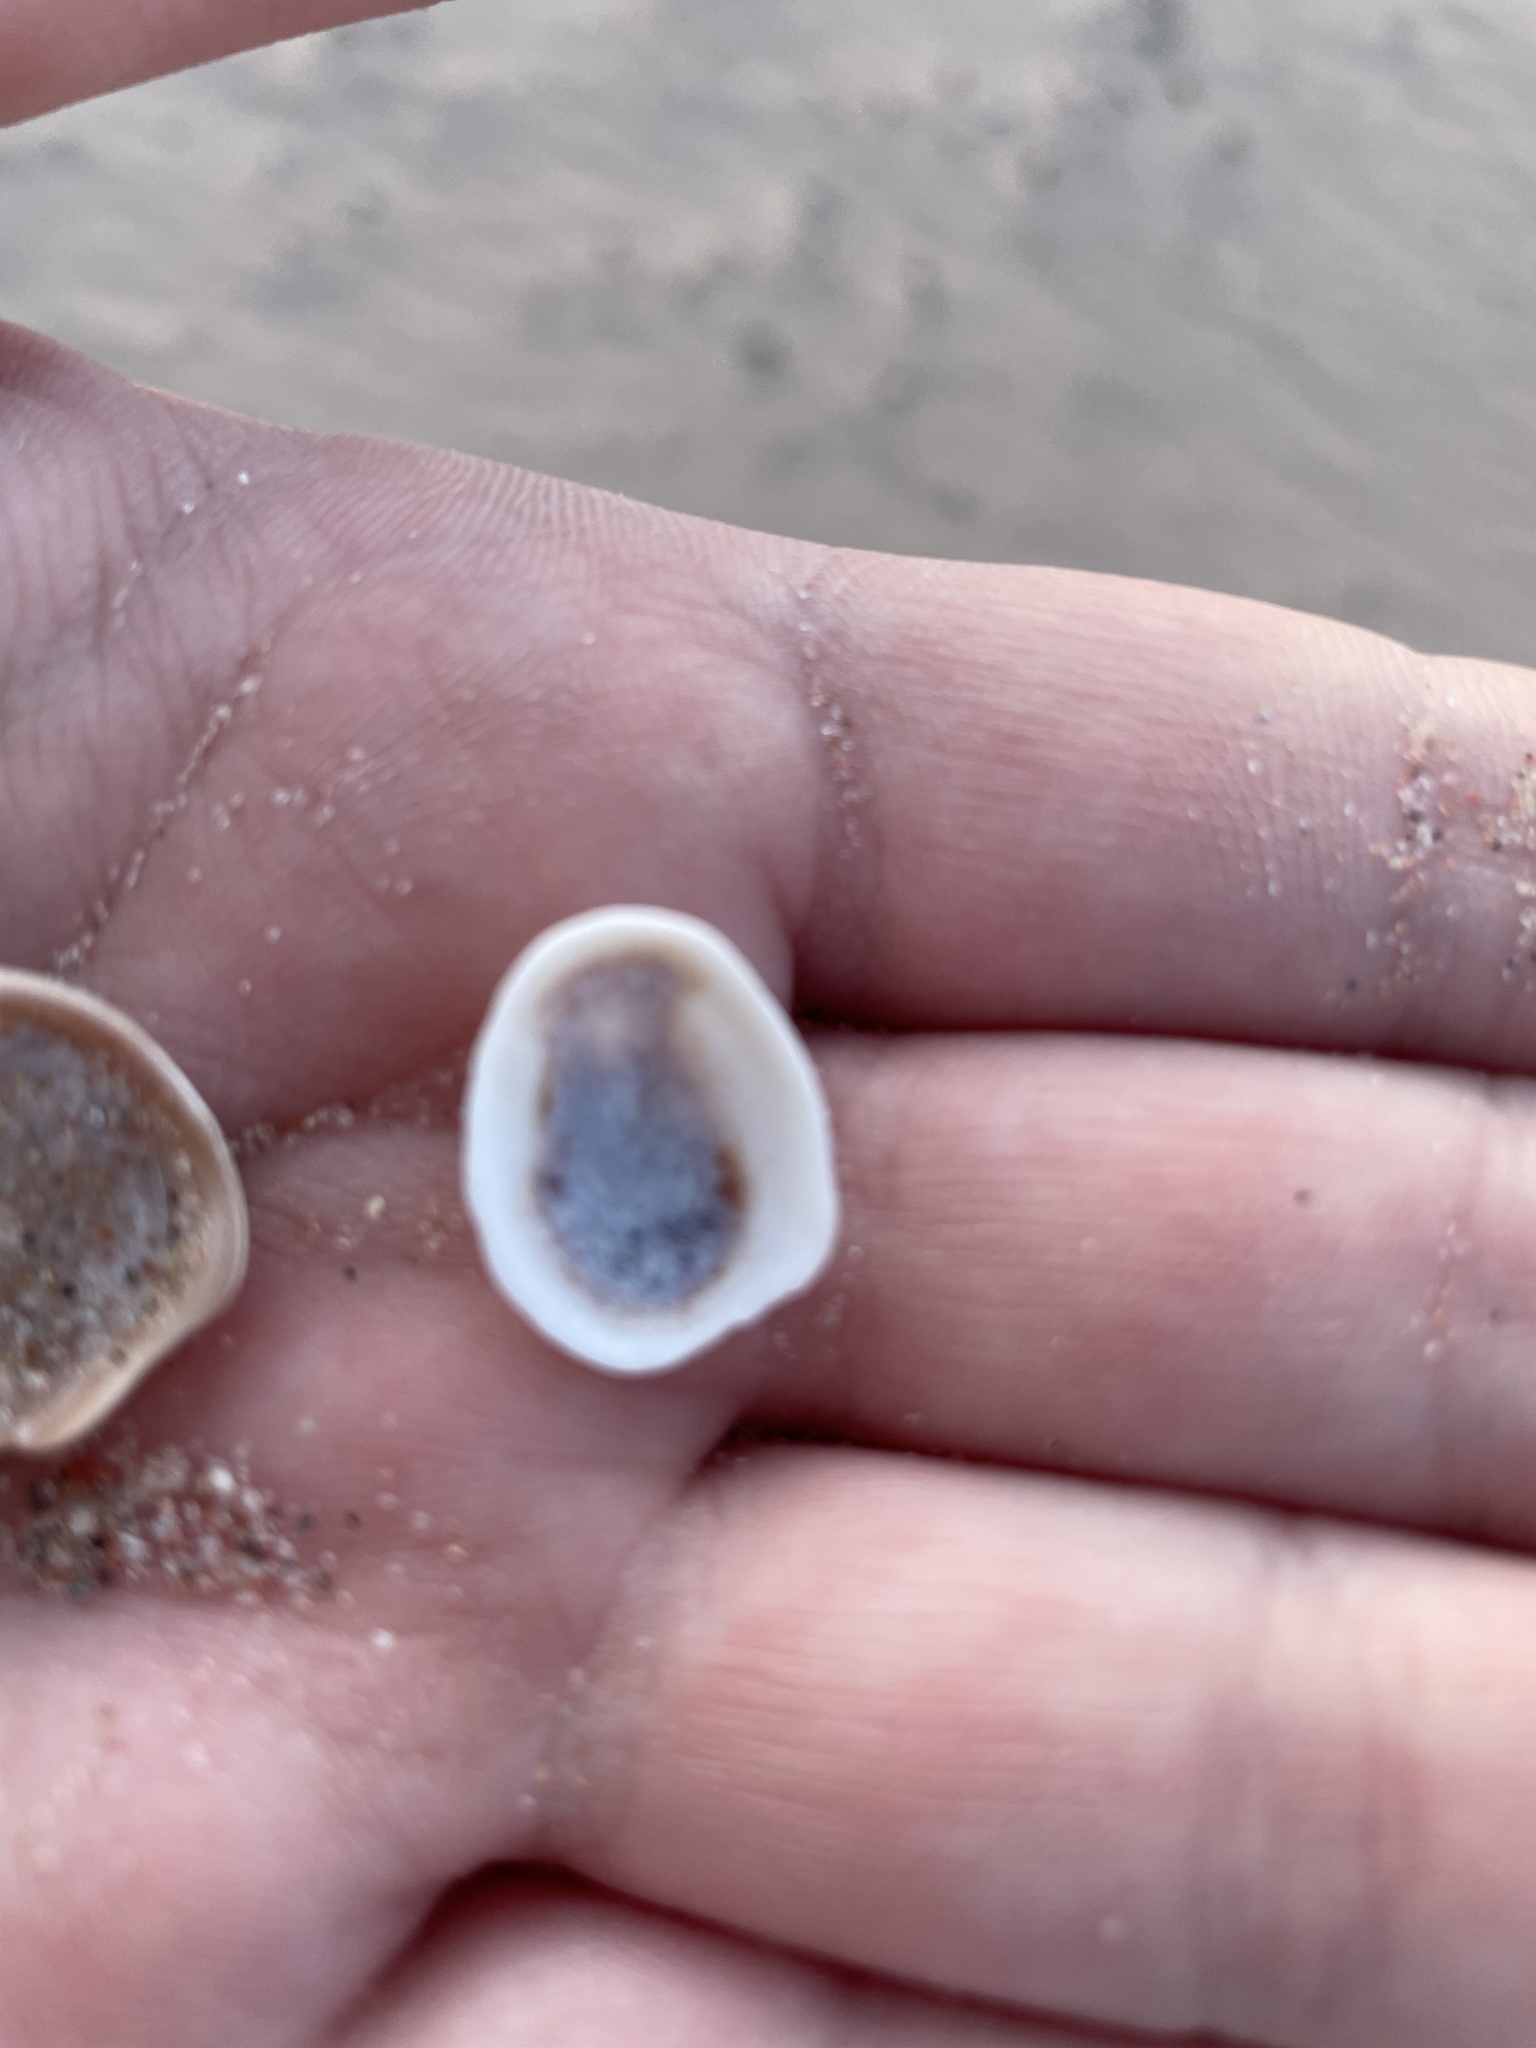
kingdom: Animalia
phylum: Mollusca
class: Gastropoda
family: Lottiidae
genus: Testudinalia
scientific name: Testudinalia testudinalis
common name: Common tortoiseshell limpet
